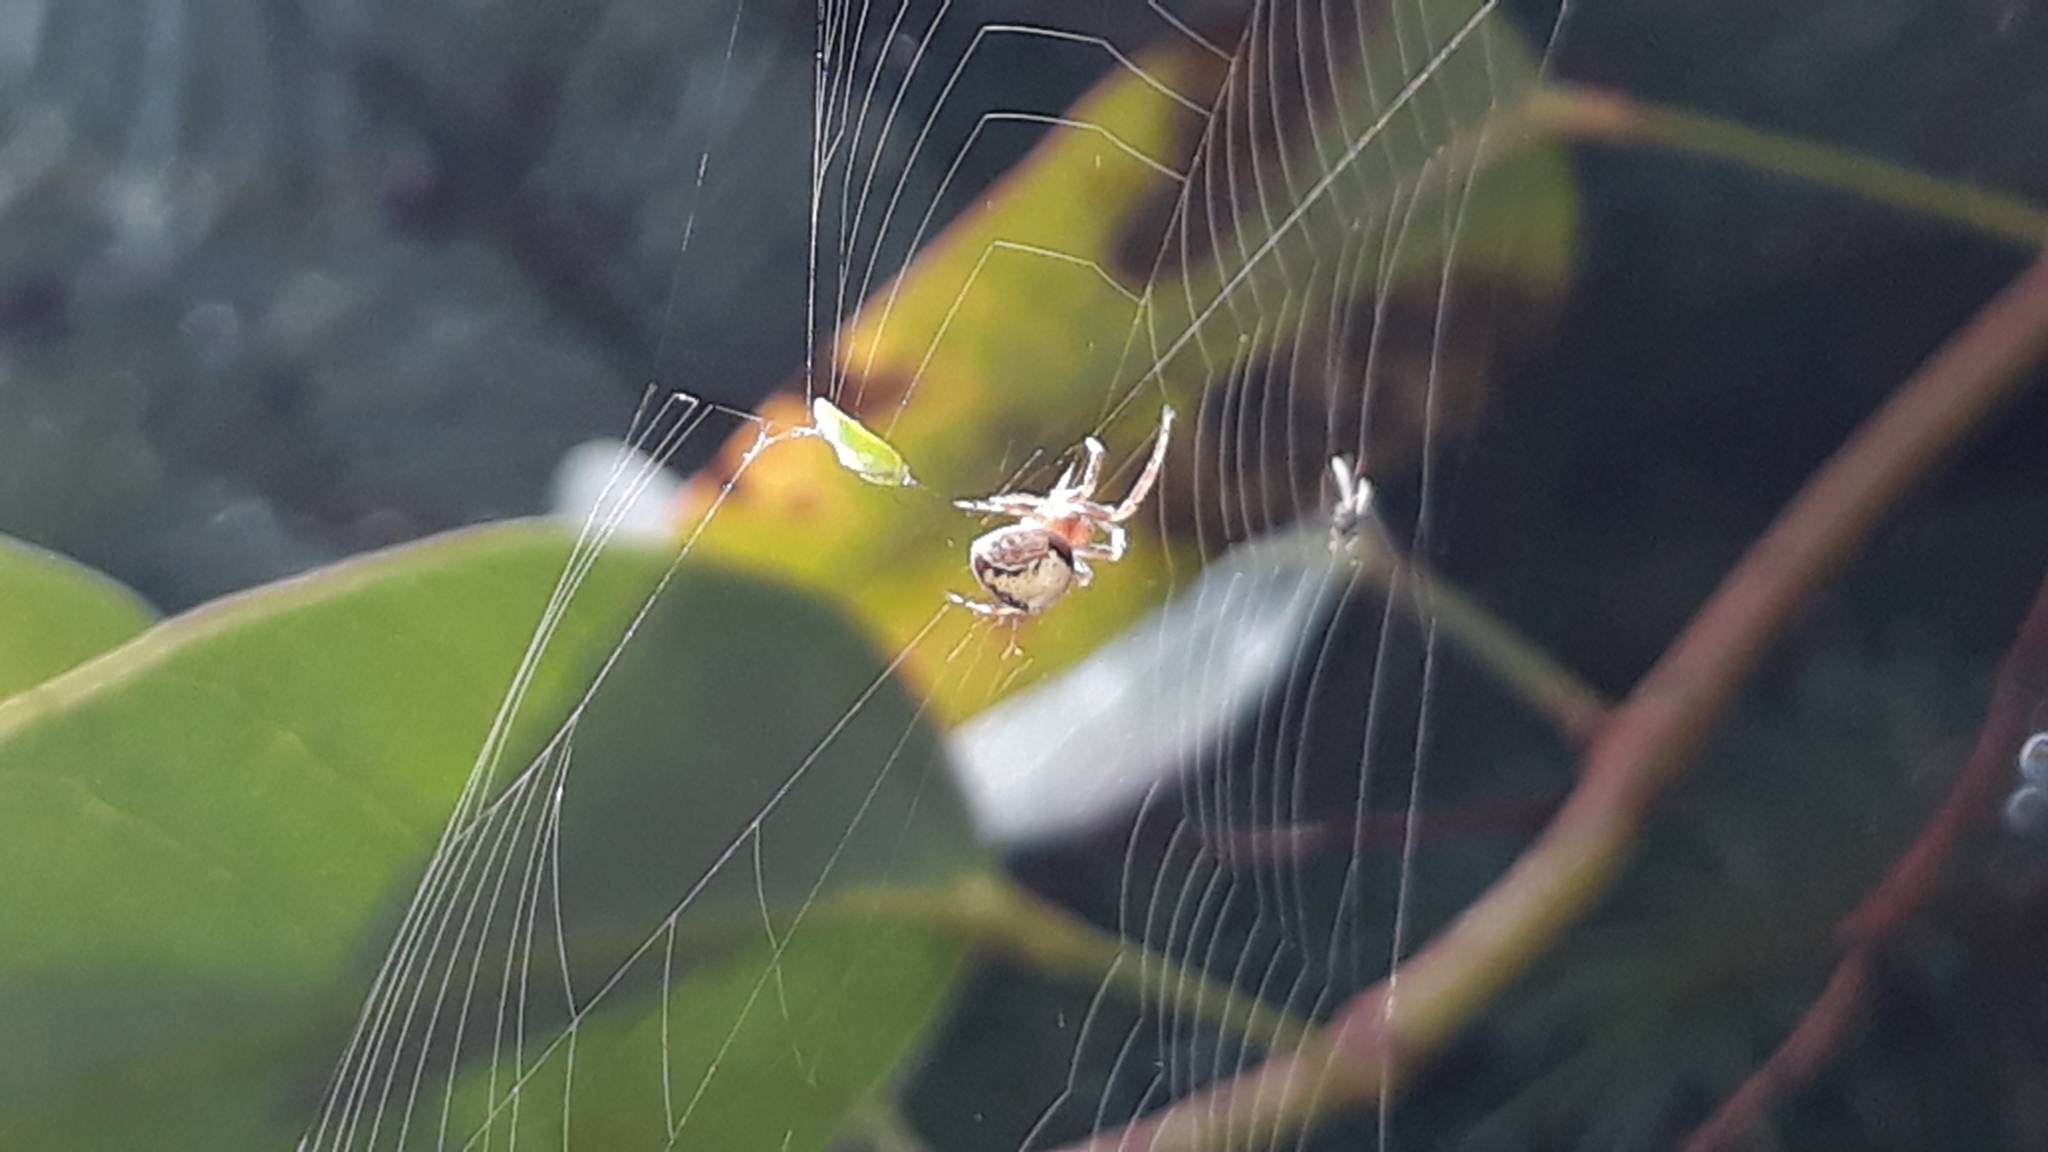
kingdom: Animalia
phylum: Arthropoda
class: Arachnida
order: Araneae
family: Araneidae
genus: Araneus
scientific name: Araneus sturmi
